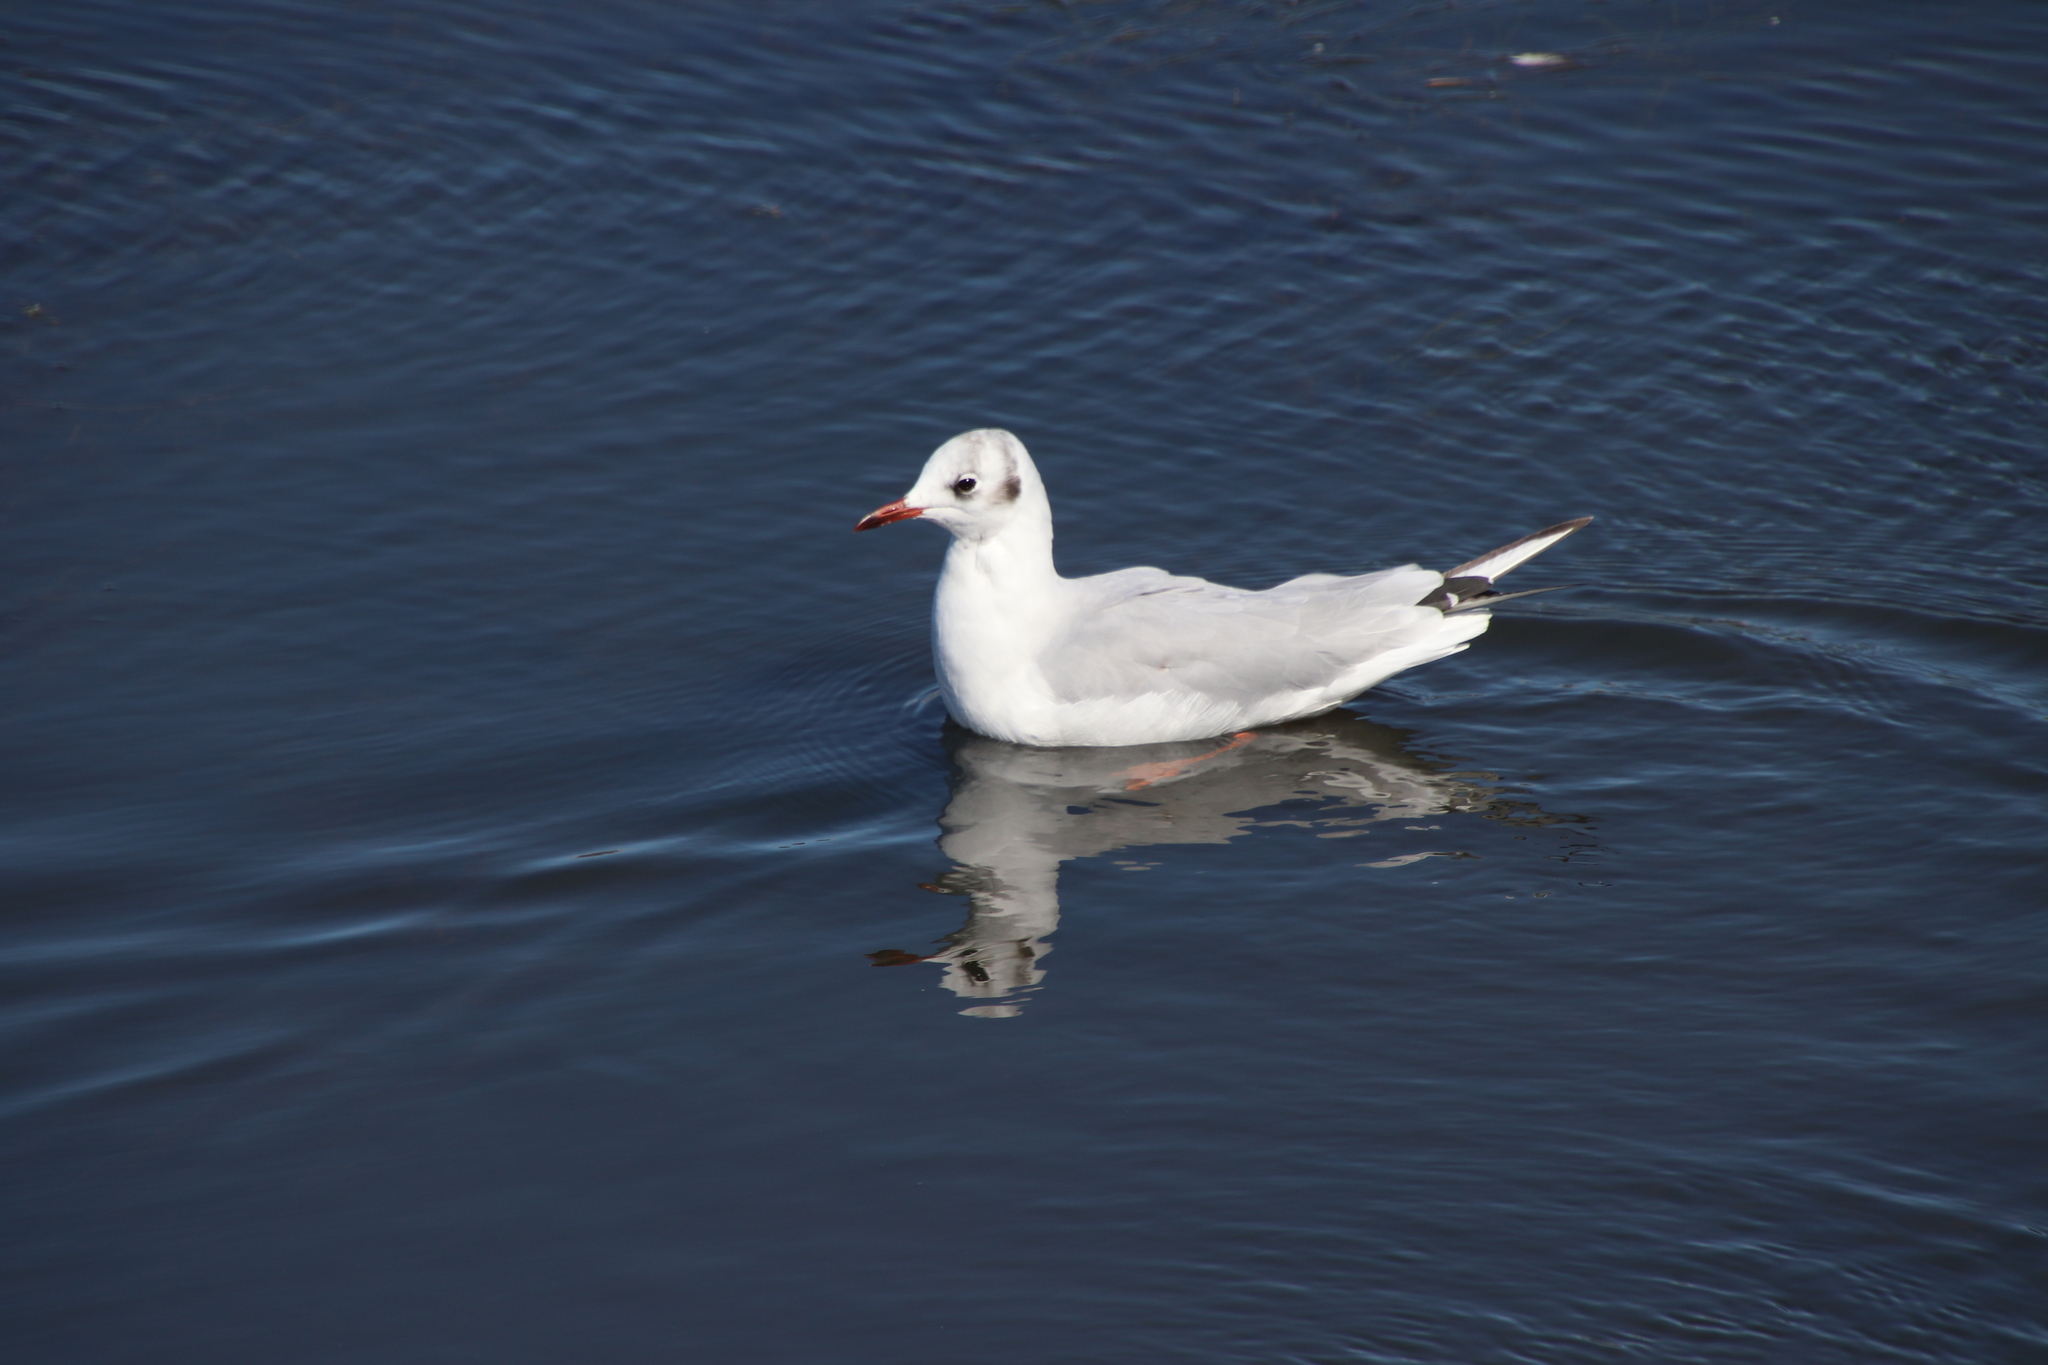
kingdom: Animalia
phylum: Chordata
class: Aves
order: Charadriiformes
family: Laridae
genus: Chroicocephalus
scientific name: Chroicocephalus ridibundus
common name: Black-headed gull
